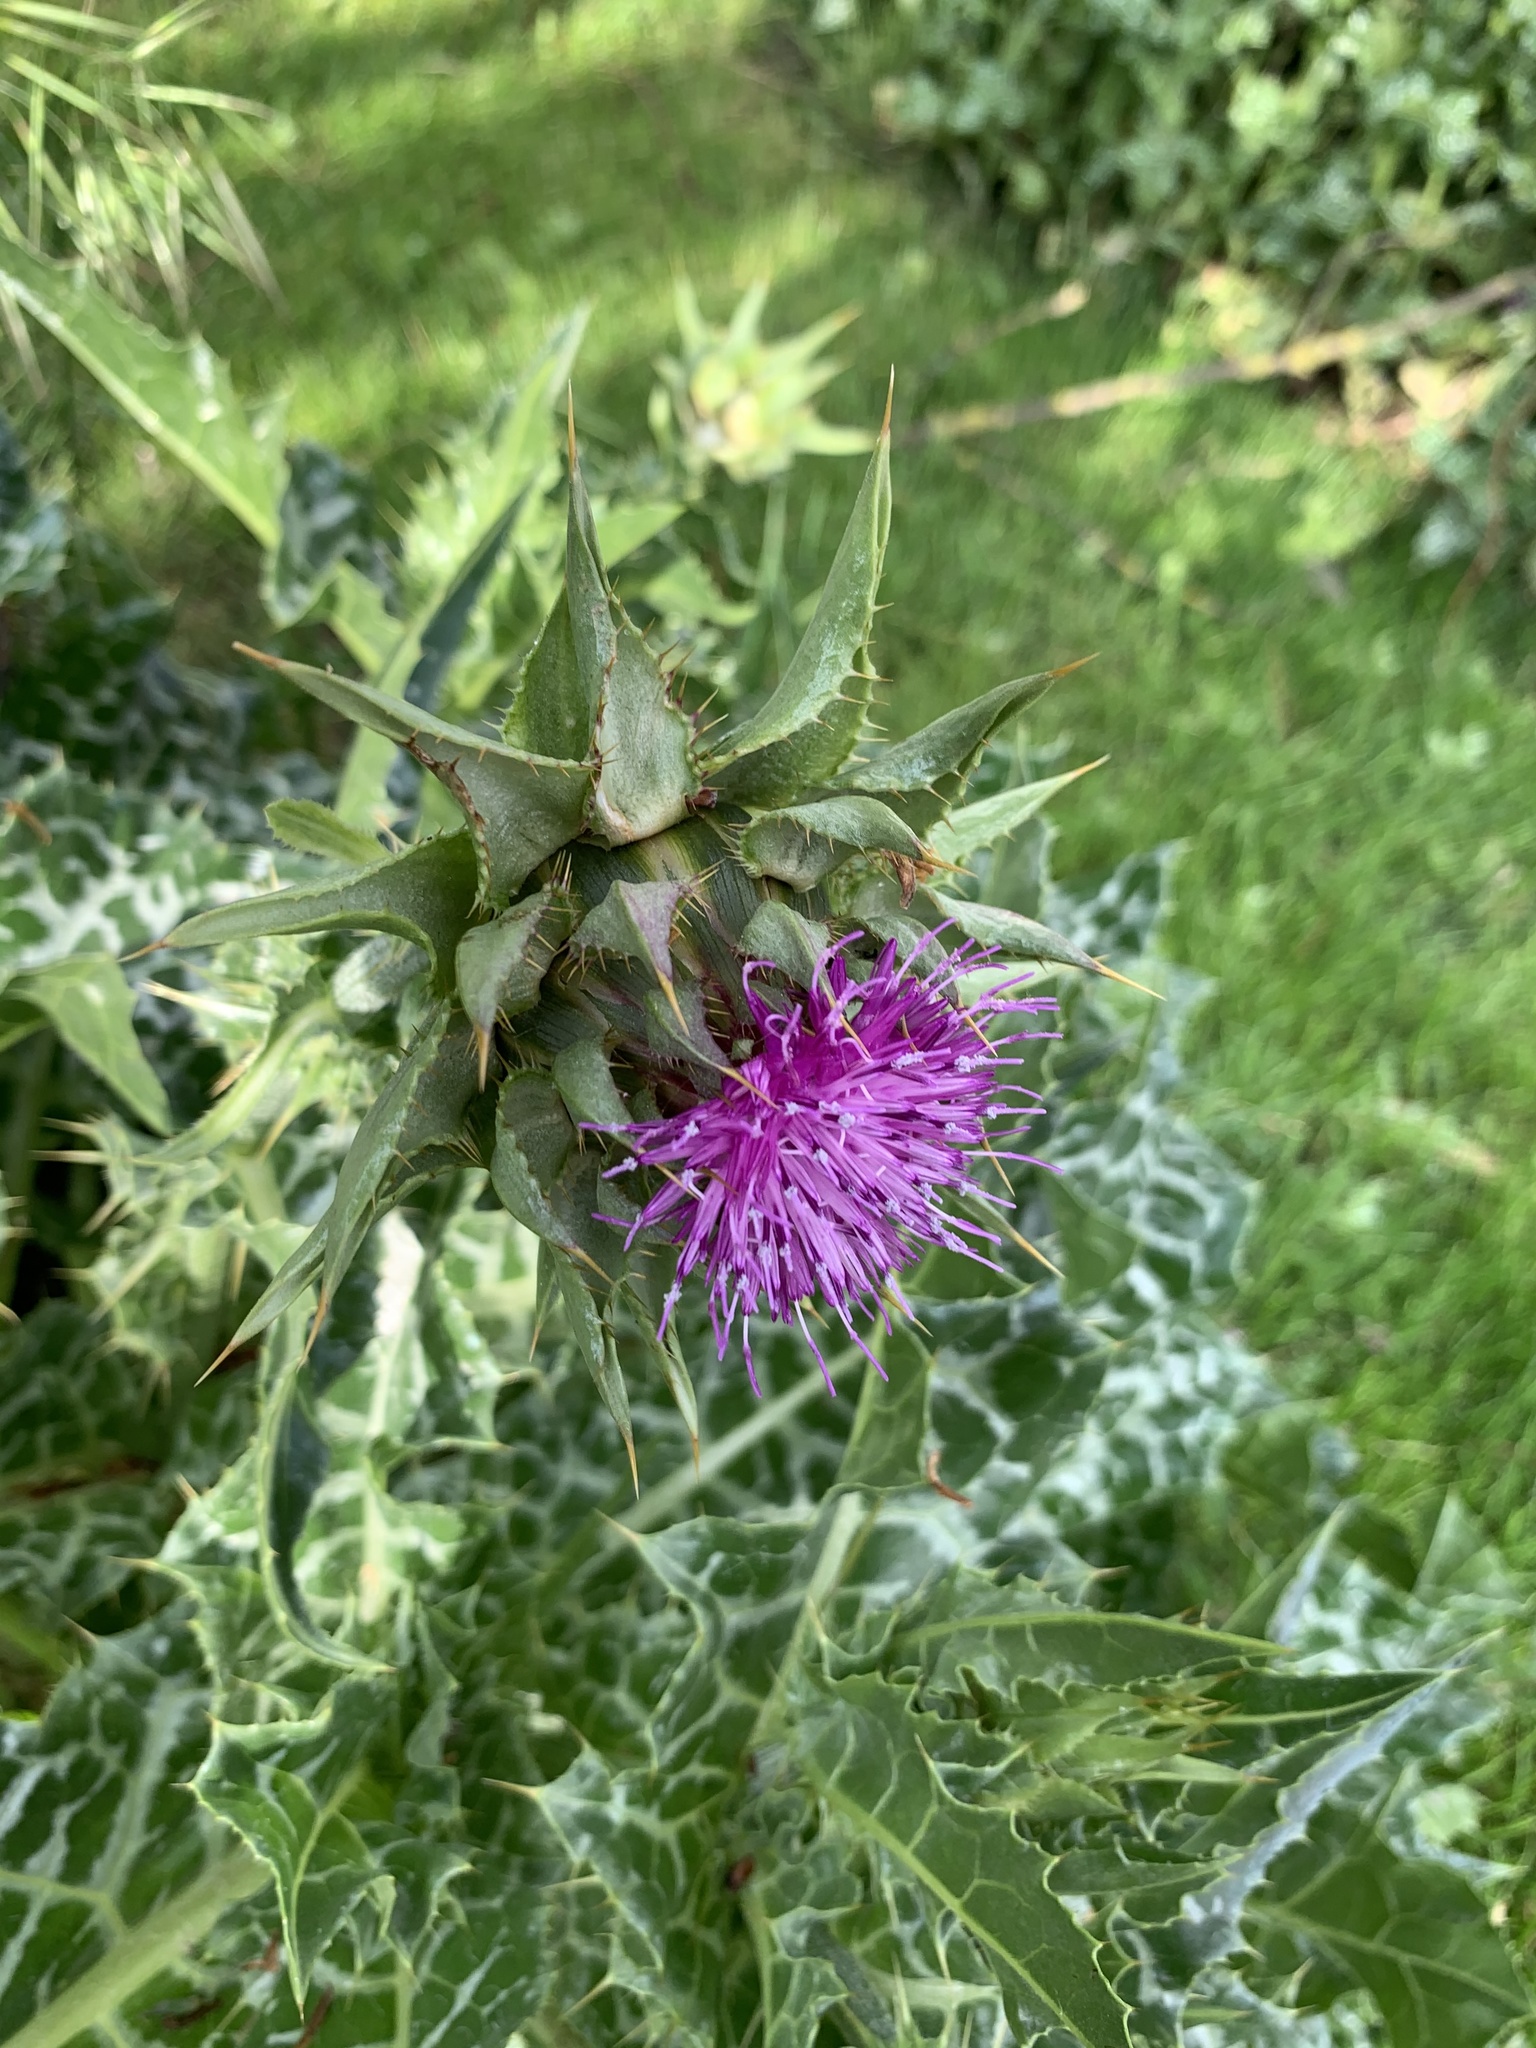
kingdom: Plantae
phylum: Tracheophyta
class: Magnoliopsida
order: Asterales
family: Asteraceae
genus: Silybum
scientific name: Silybum marianum
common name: Milk thistle
